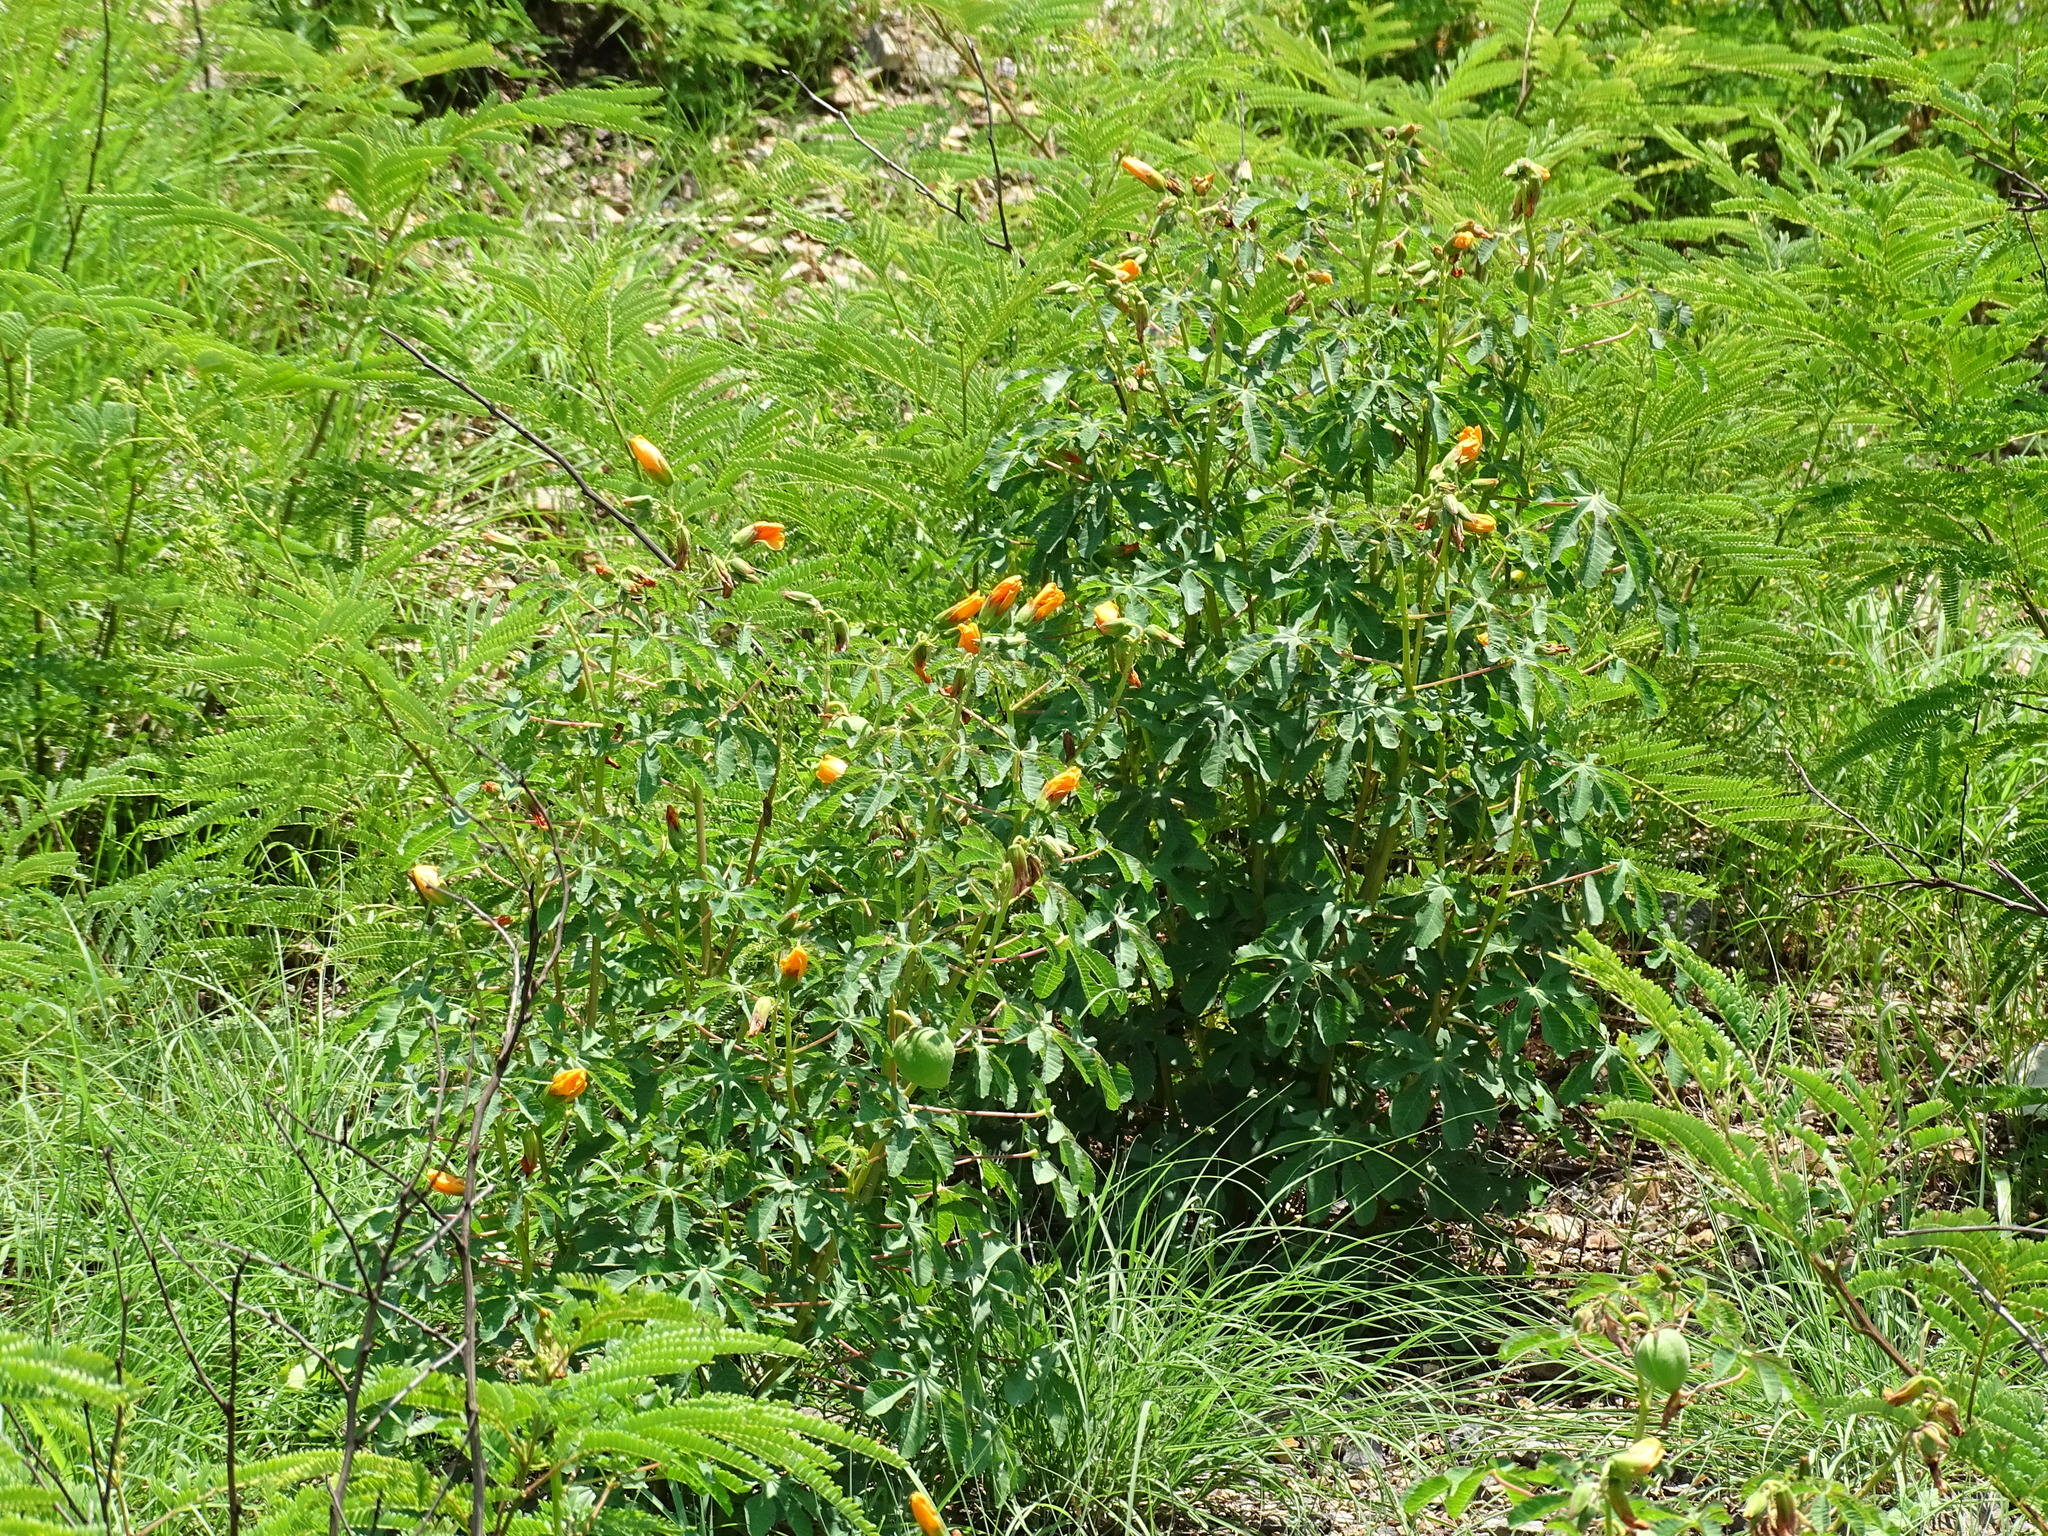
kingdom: Plantae
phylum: Tracheophyta
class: Magnoliopsida
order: Malvales
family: Cochlospermaceae
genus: Cochlospermum
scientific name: Cochlospermum wrightii
